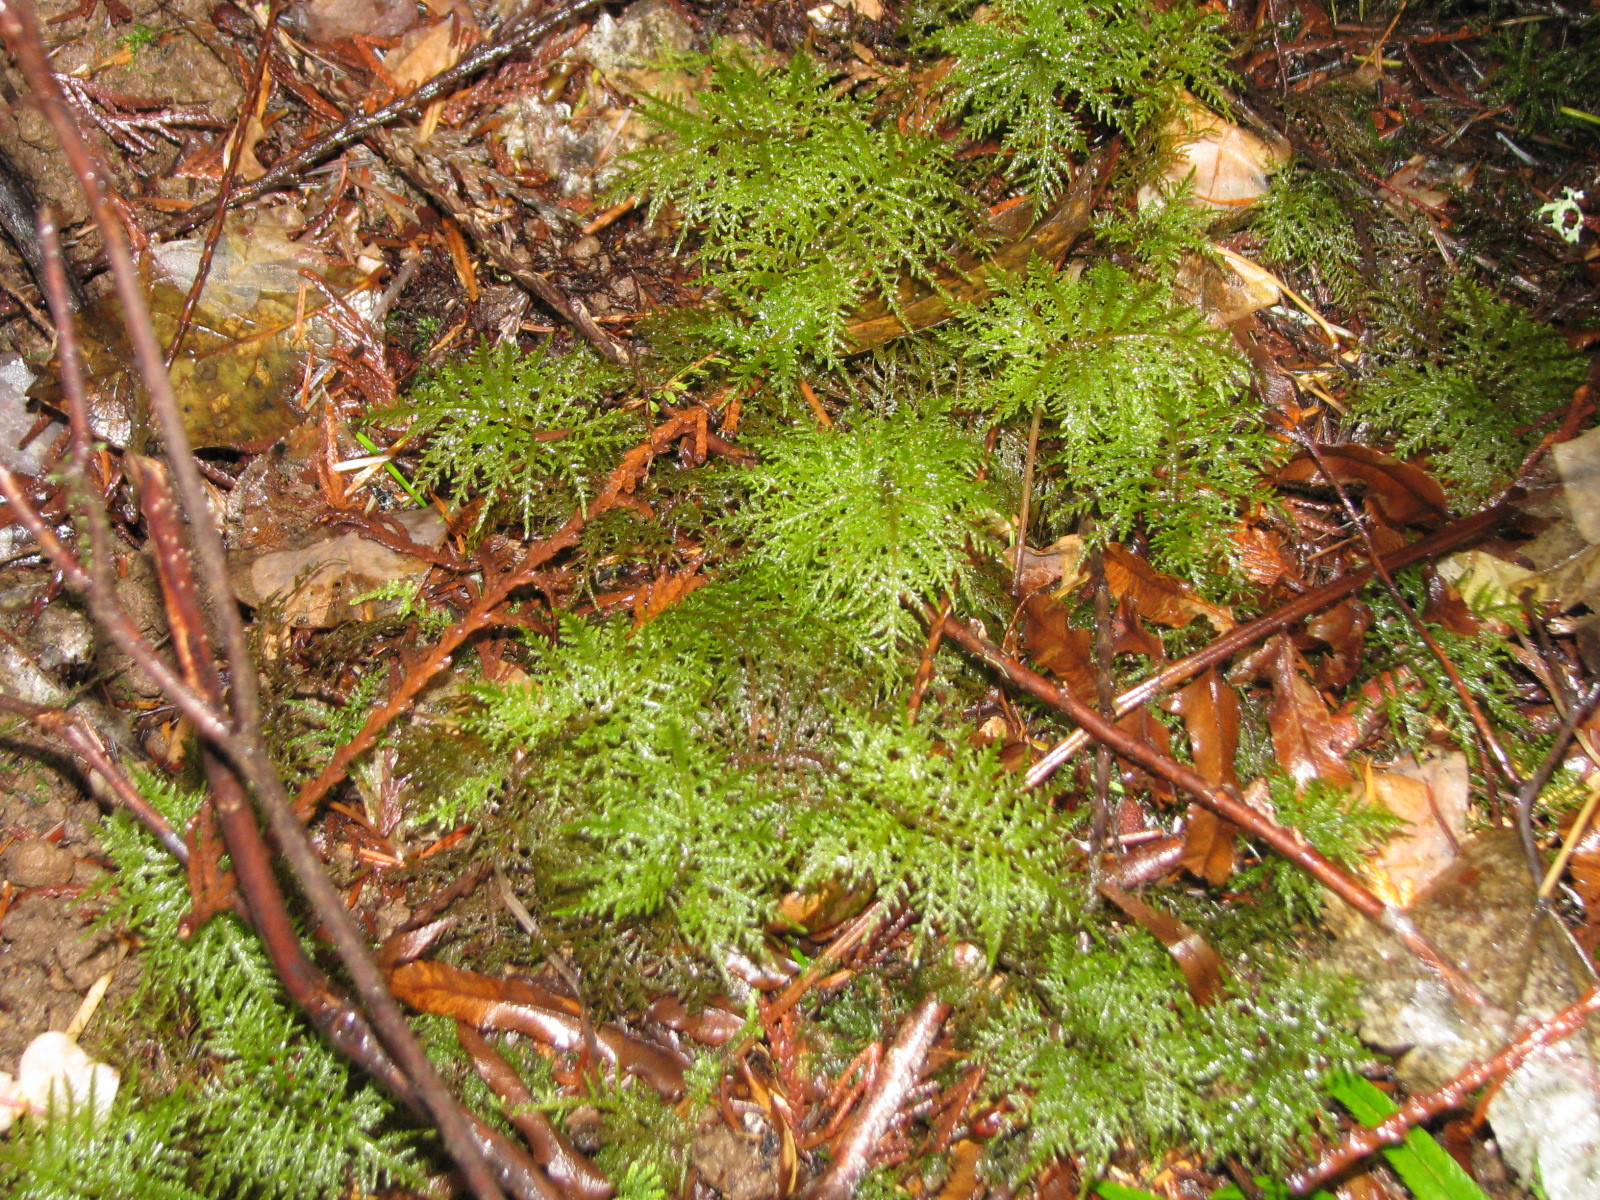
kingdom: Plantae
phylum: Bryophyta
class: Bryopsida
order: Hypnales
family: Hylocomiaceae
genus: Hylocomium
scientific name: Hylocomium splendens
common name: Stairstep moss
